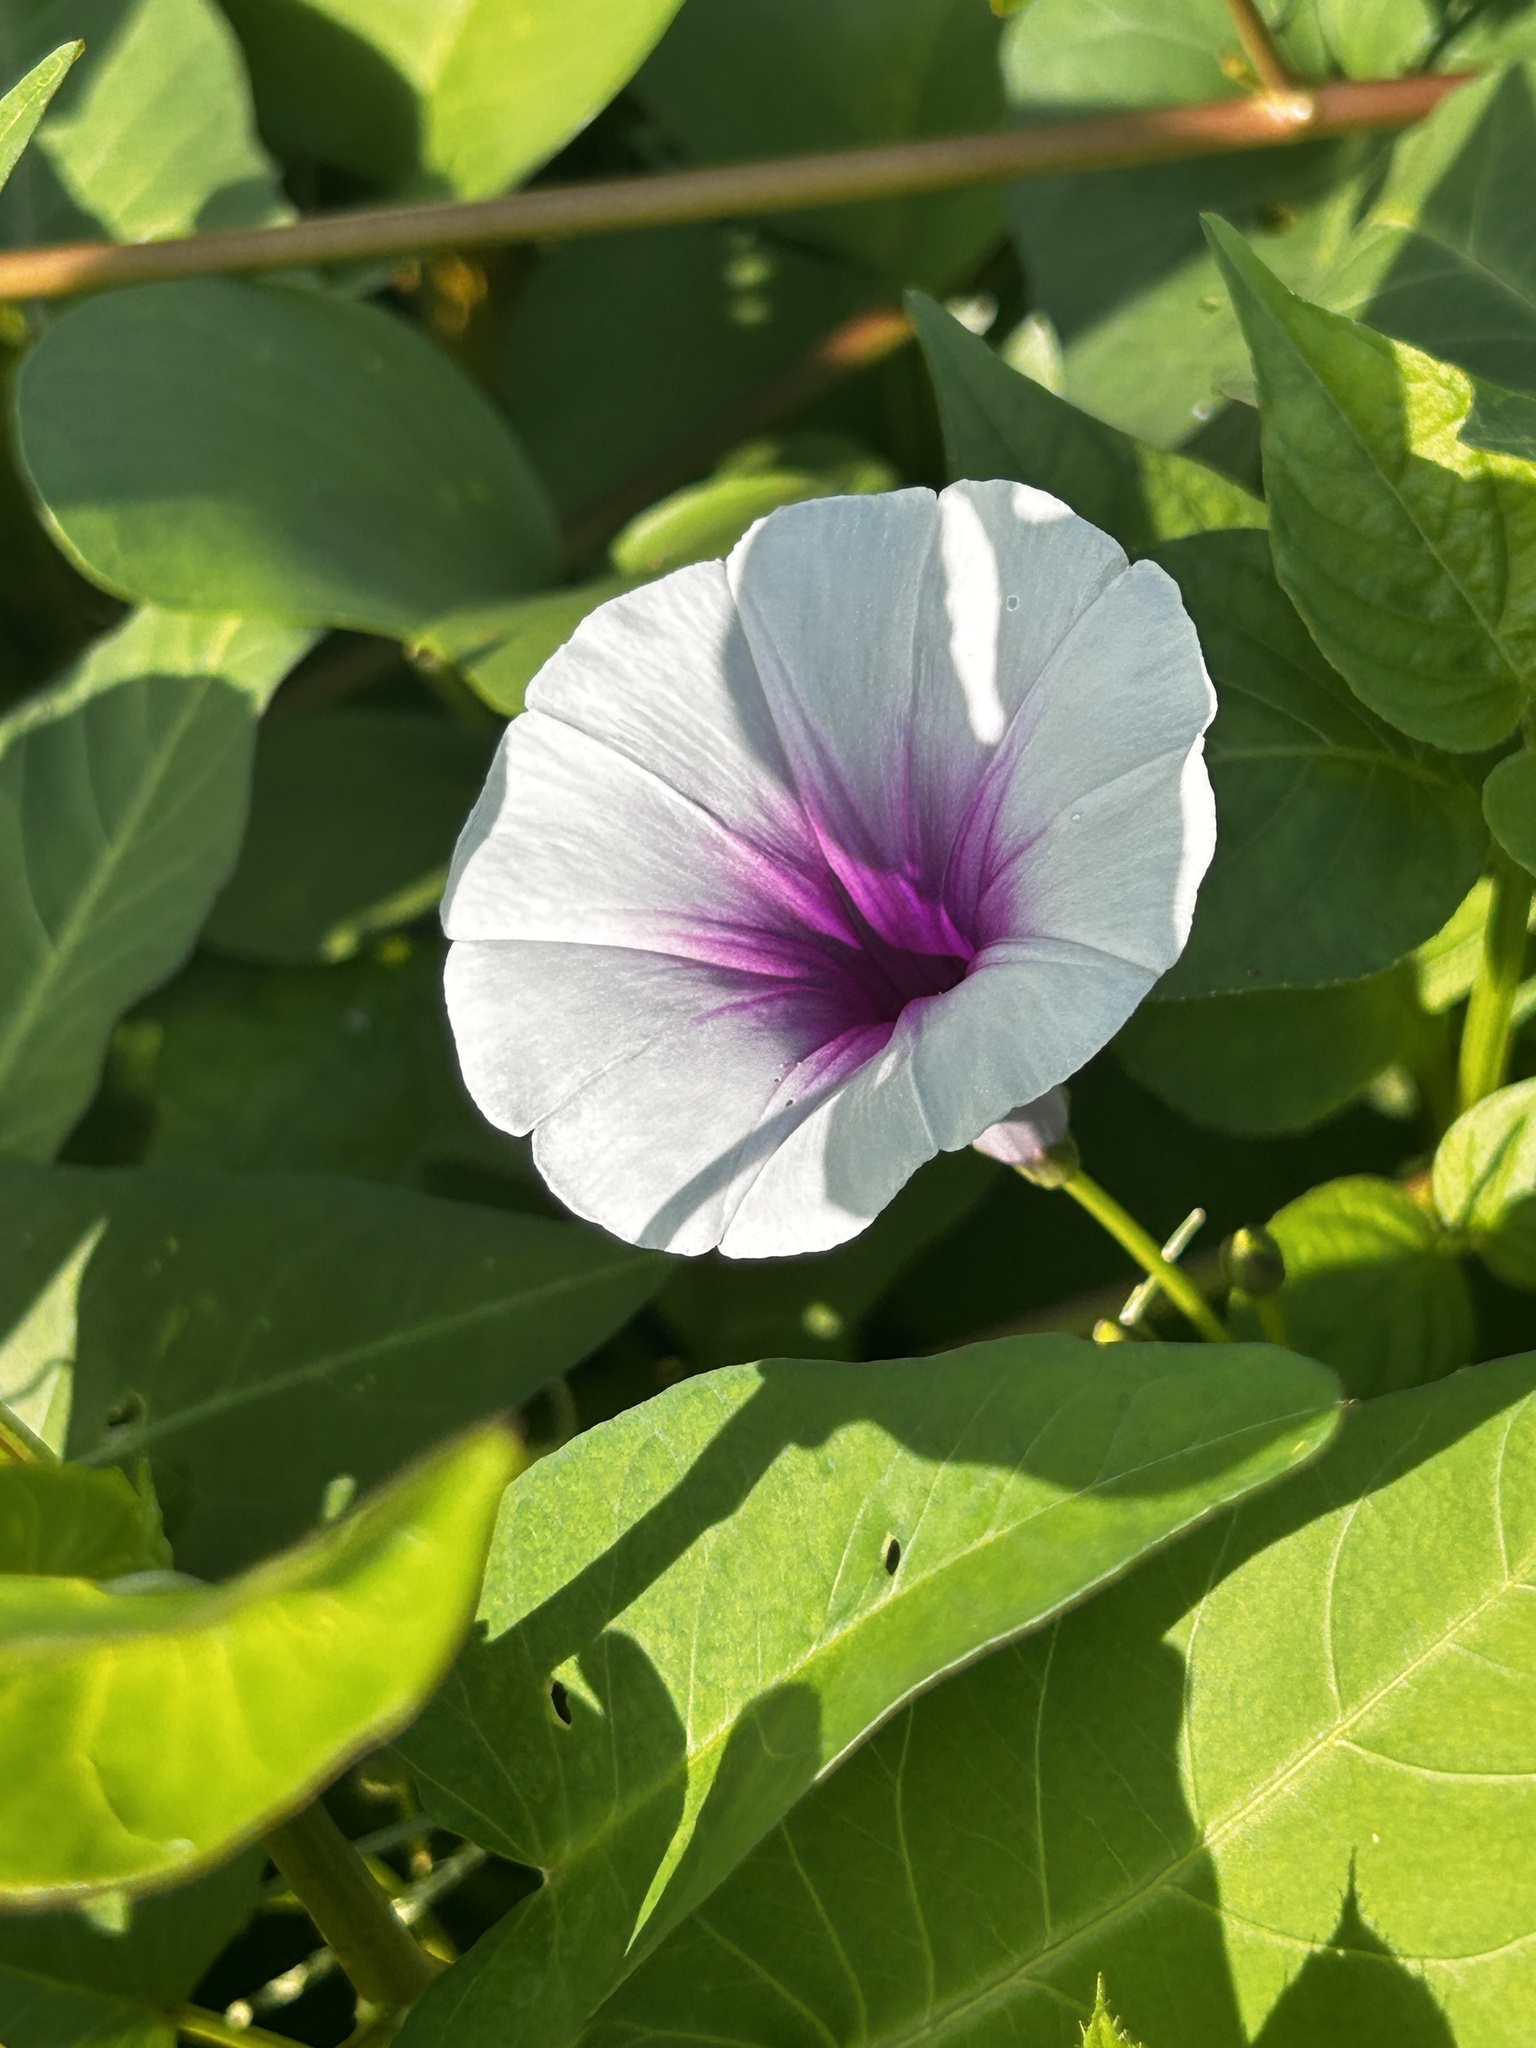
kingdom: Plantae
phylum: Tracheophyta
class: Magnoliopsida
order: Solanales
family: Convolvulaceae
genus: Ipomoea
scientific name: Ipomoea aquatica
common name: Swamp morning-glory
